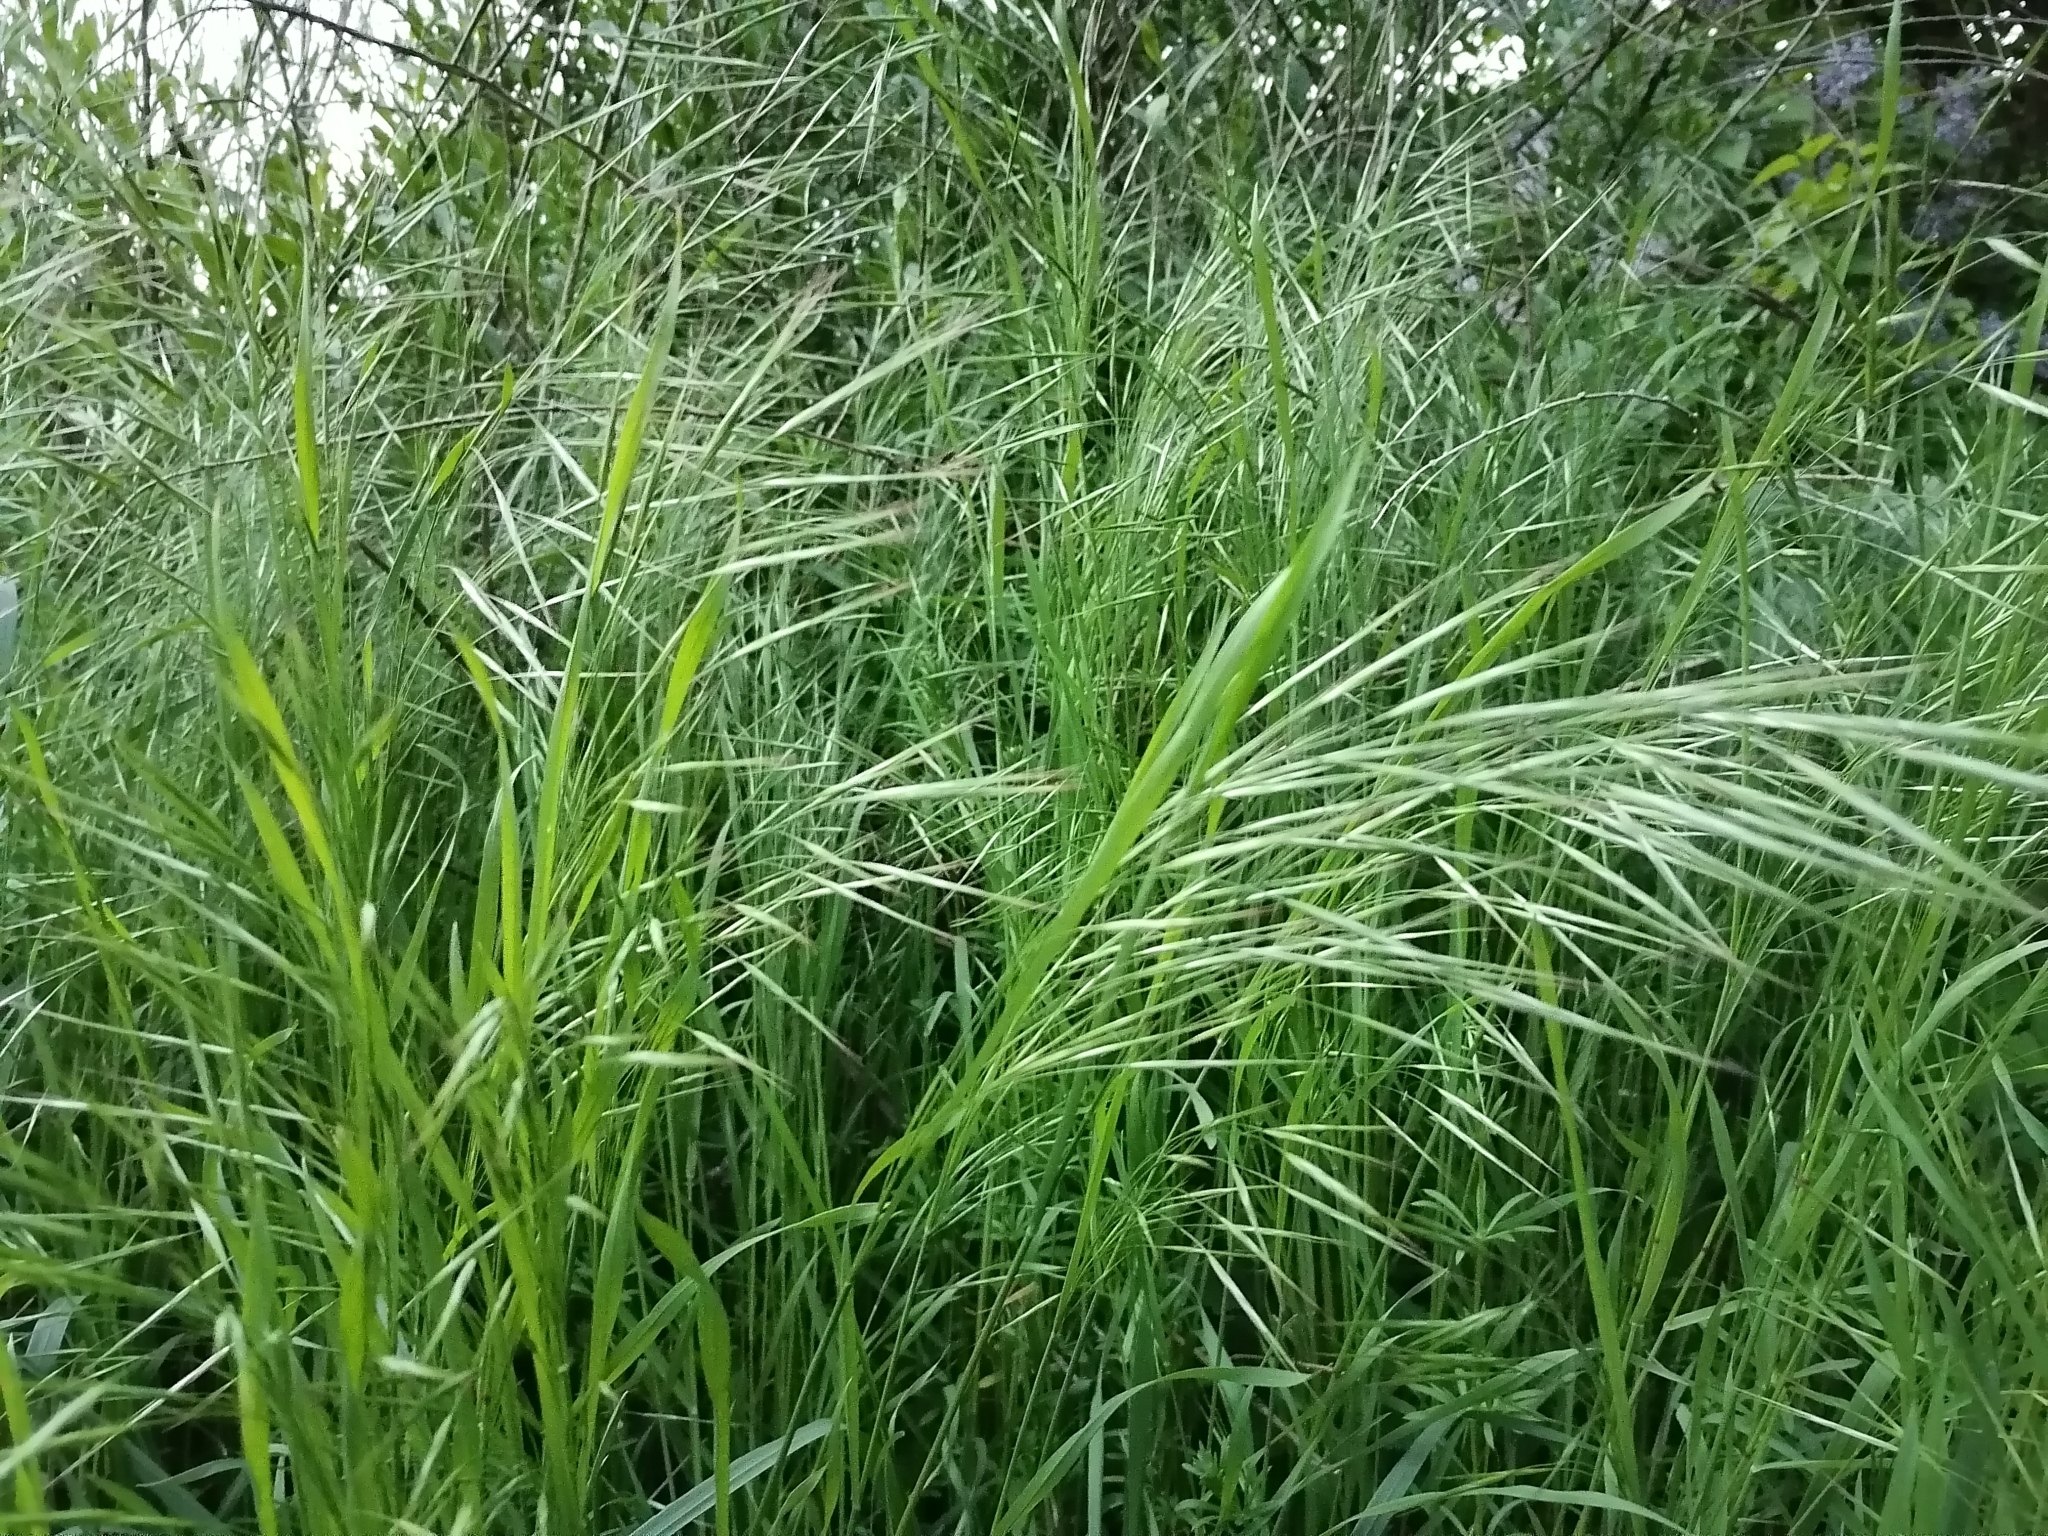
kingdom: Plantae
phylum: Tracheophyta
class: Liliopsida
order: Poales
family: Poaceae
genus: Bromus
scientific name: Bromus sterilis
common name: Poverty brome
